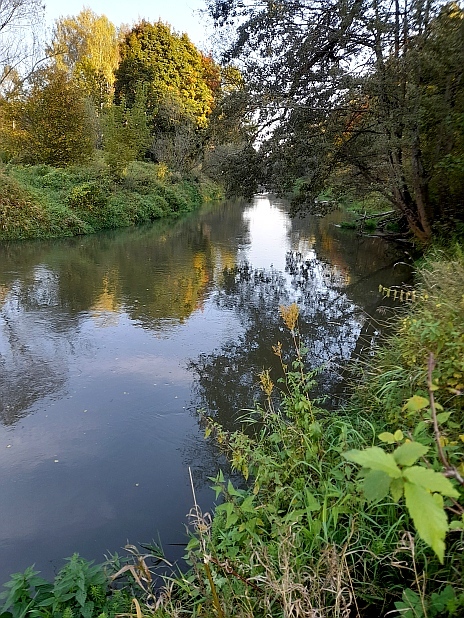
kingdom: Plantae
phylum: Tracheophyta
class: Magnoliopsida
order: Rosales
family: Rosaceae
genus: Filipendula
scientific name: Filipendula ulmaria
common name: Meadowsweet
